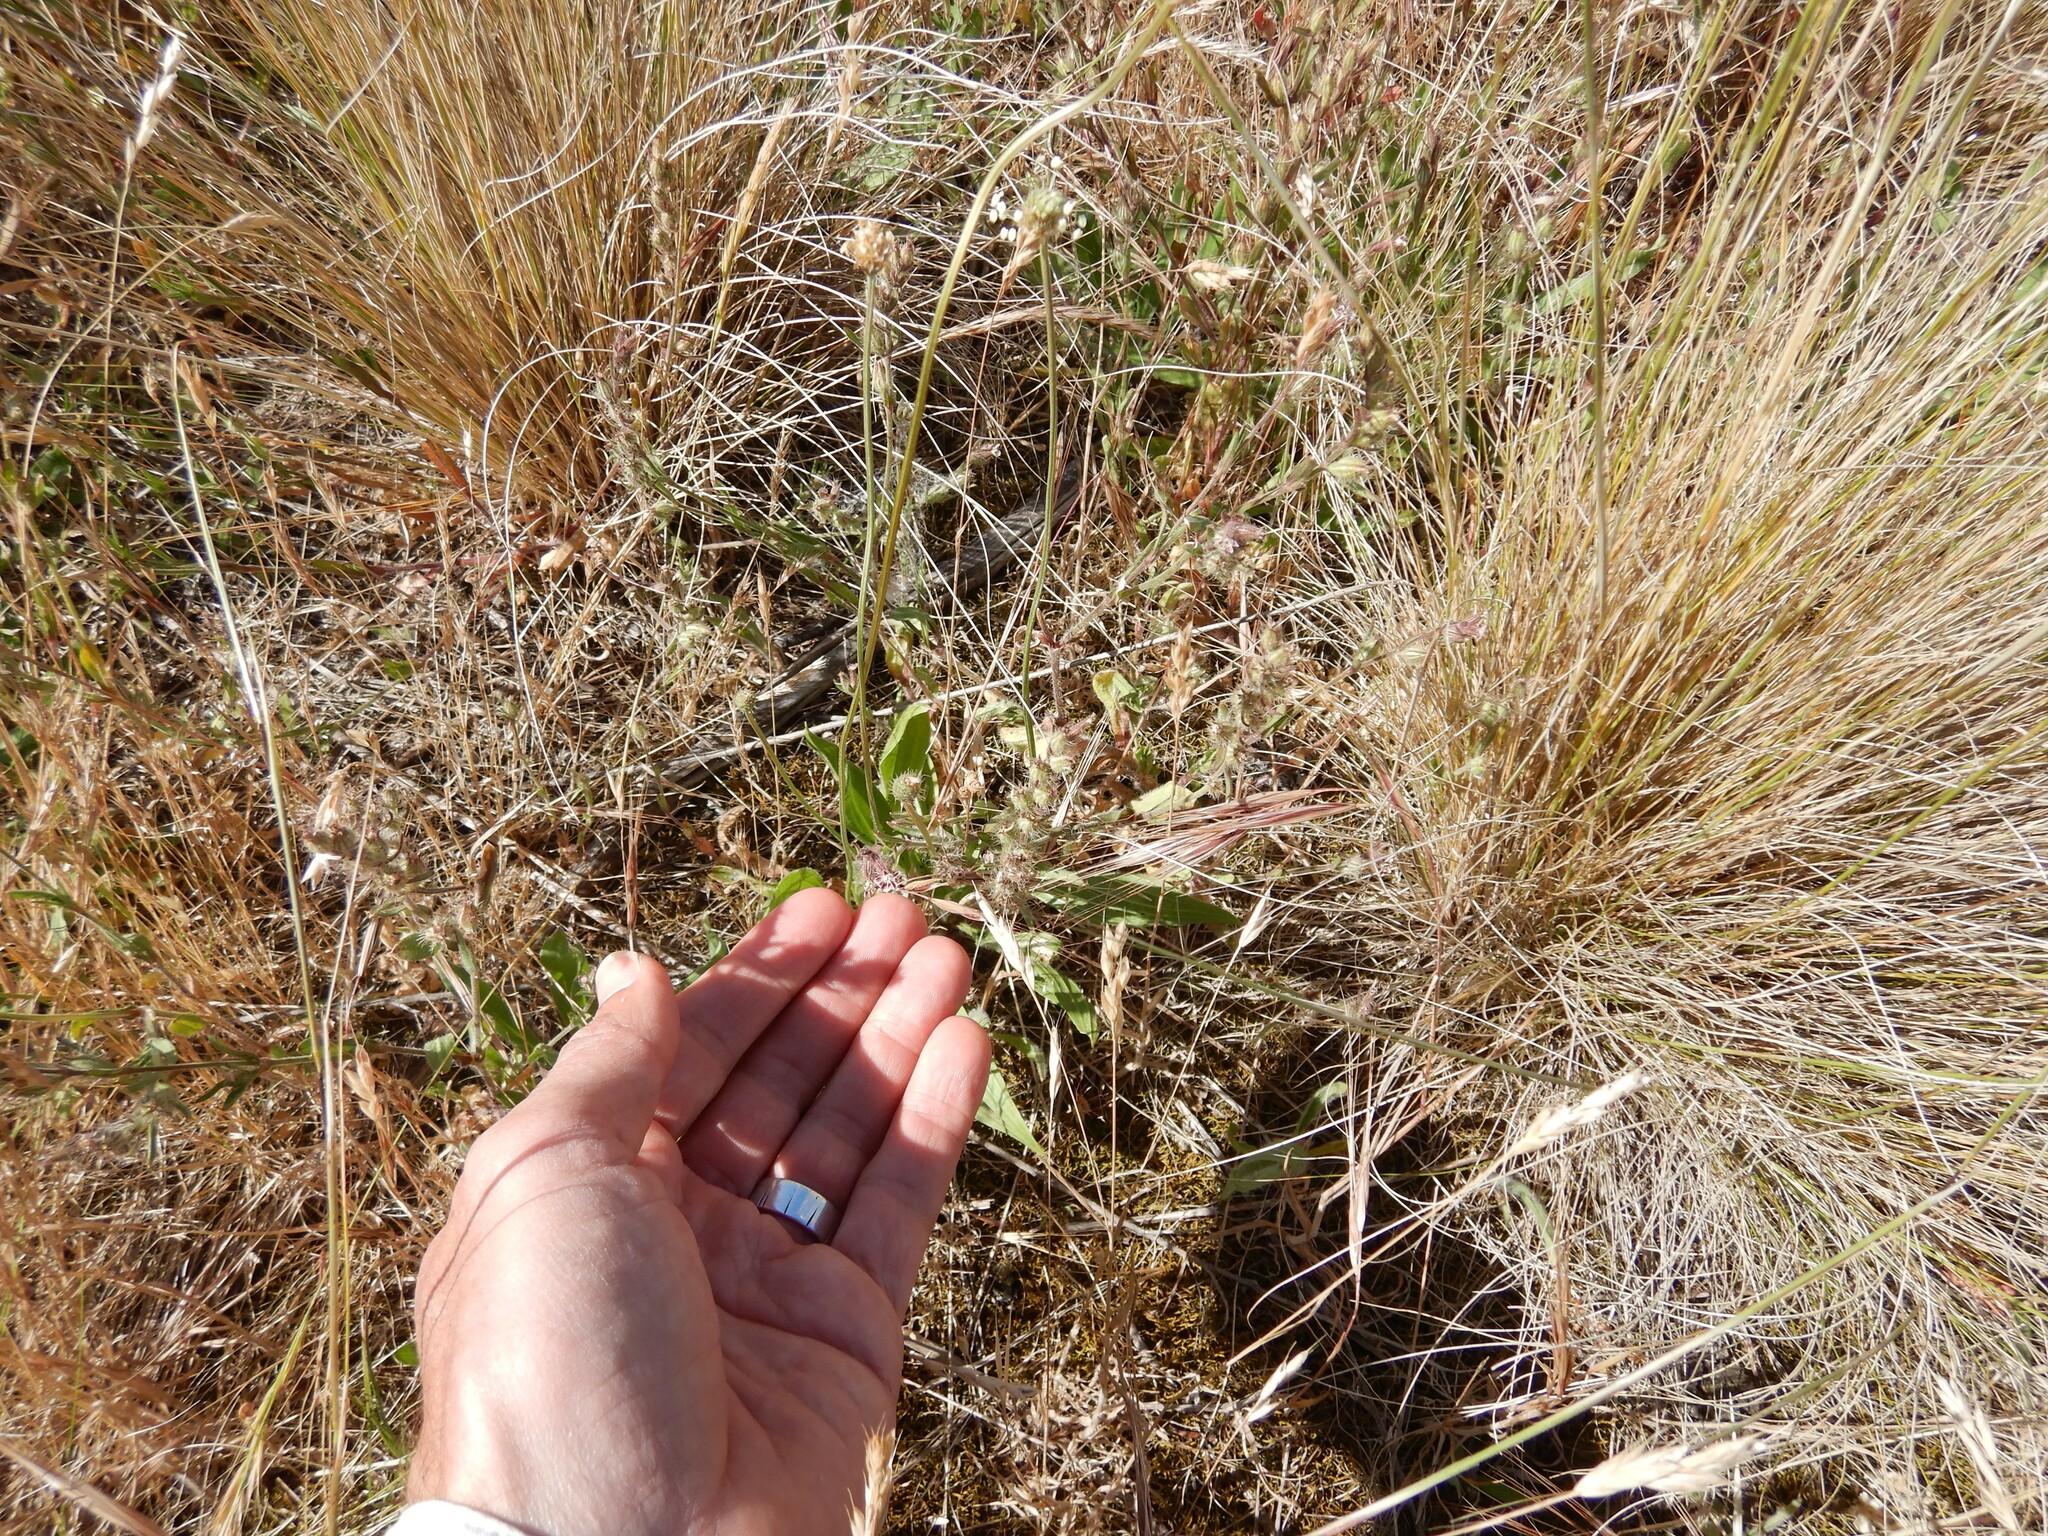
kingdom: Plantae
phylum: Tracheophyta
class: Magnoliopsida
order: Caryophyllales
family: Caryophyllaceae
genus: Silene
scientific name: Silene gallica
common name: Small-flowered catchfly
